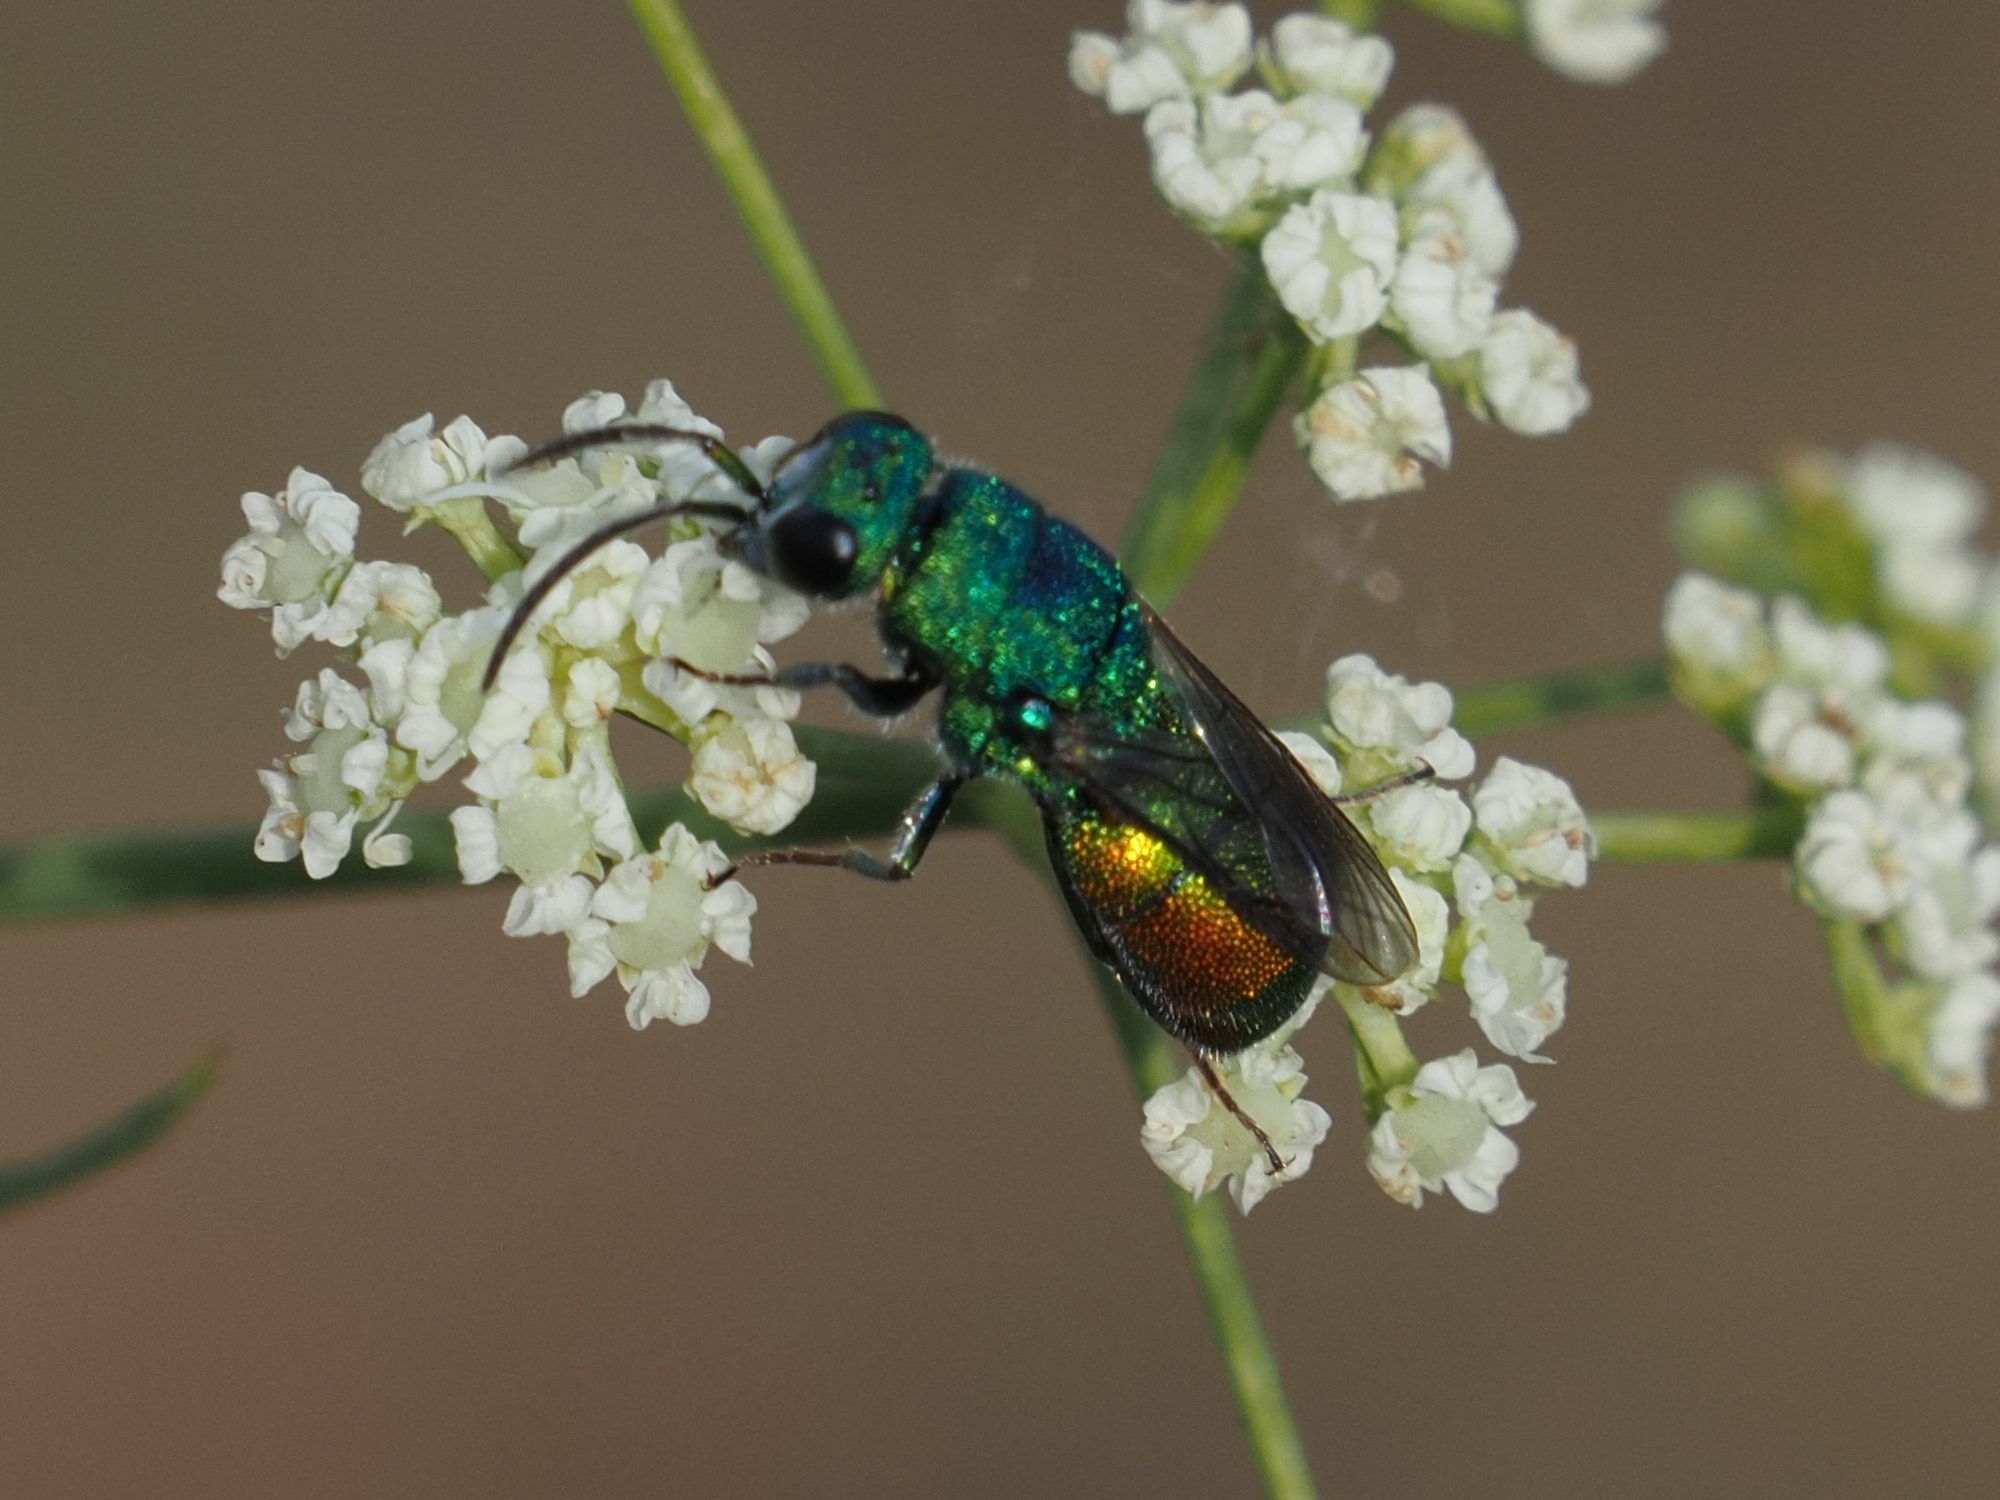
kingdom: Animalia
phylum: Arthropoda
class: Insecta
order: Hymenoptera
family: Chrysididae
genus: Chrysis
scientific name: Chrysis marginata
